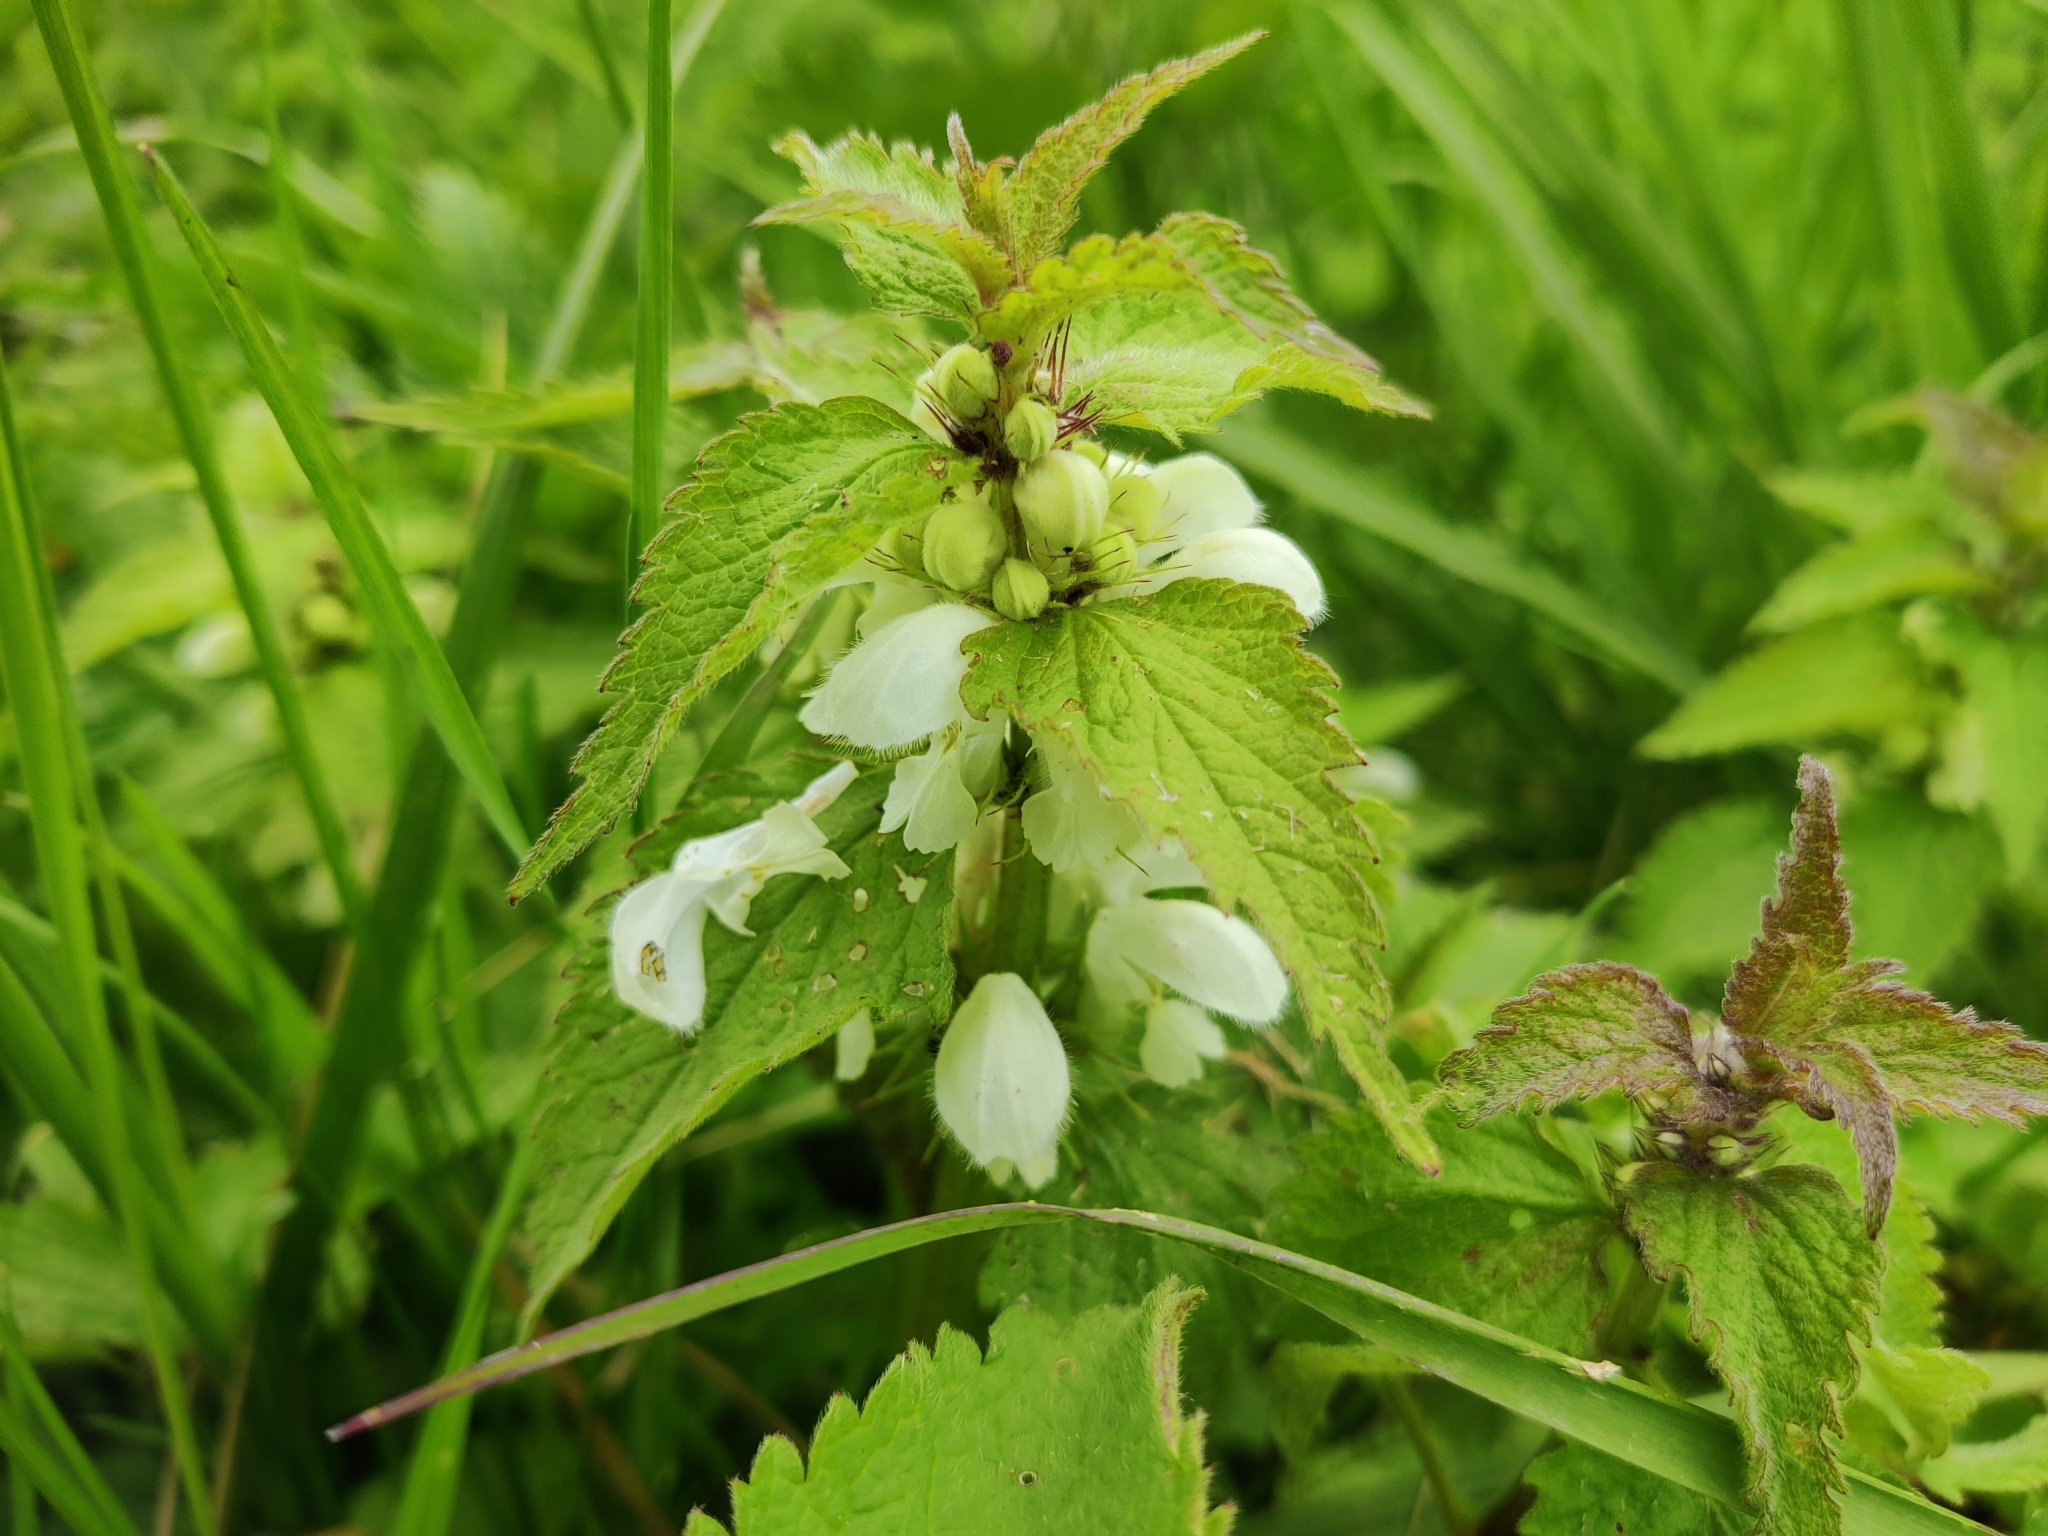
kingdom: Plantae
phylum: Tracheophyta
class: Magnoliopsida
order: Lamiales
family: Lamiaceae
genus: Lamium
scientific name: Lamium album
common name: White dead-nettle
